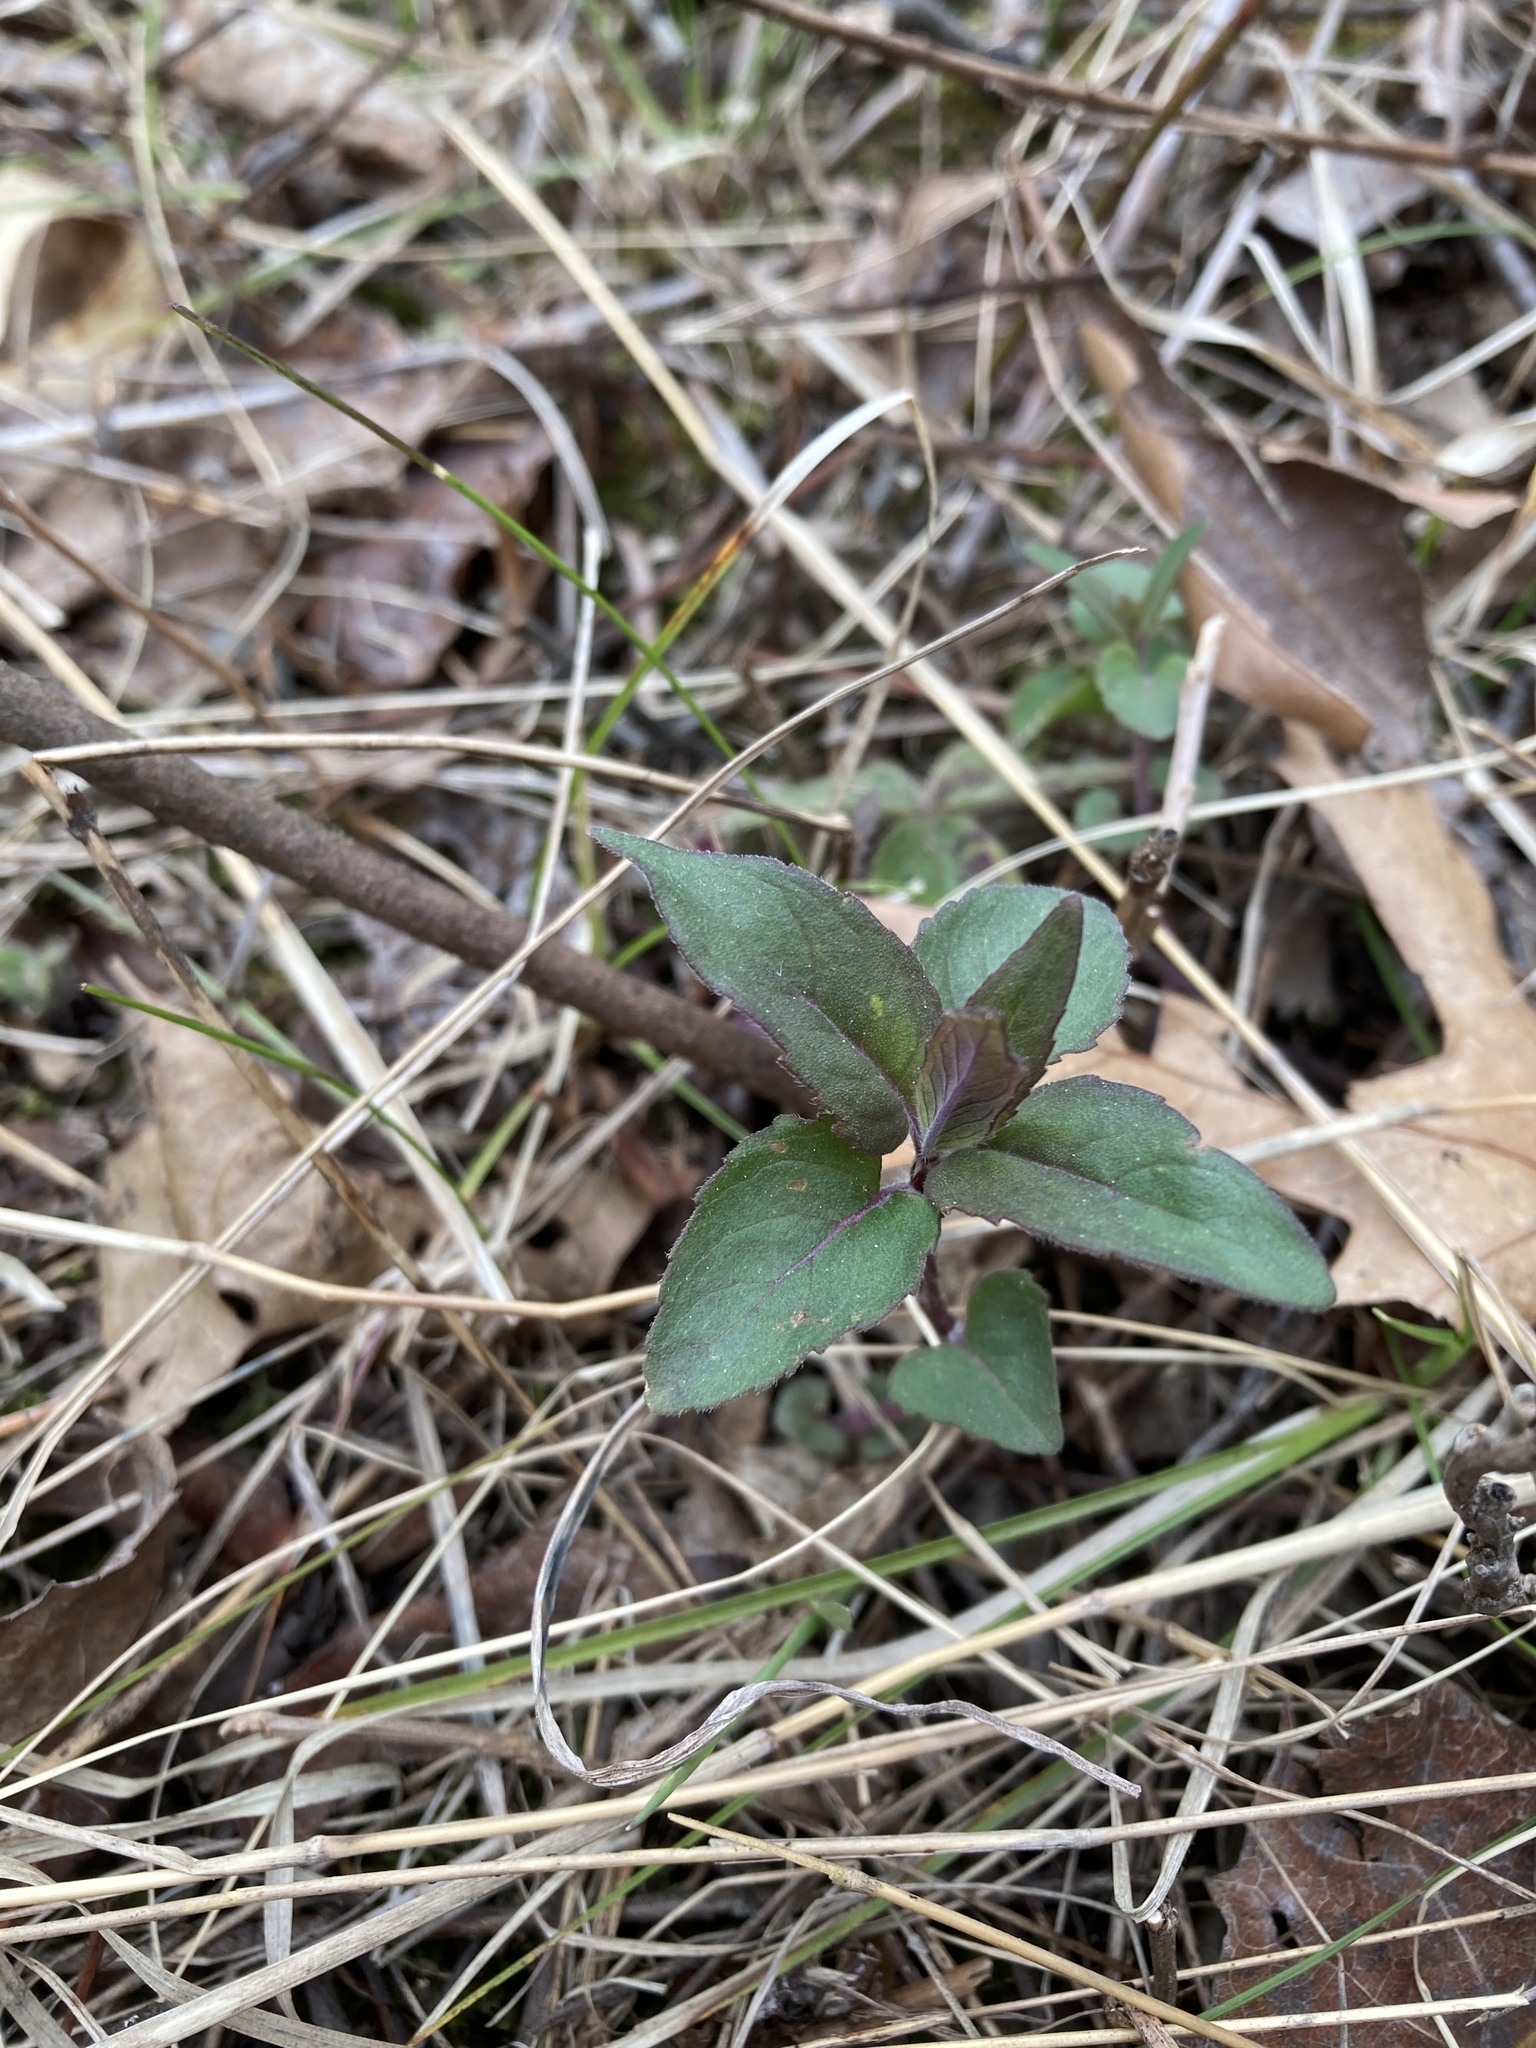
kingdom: Plantae
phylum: Tracheophyta
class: Magnoliopsida
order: Lamiales
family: Lamiaceae
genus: Monarda
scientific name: Monarda fistulosa
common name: Purple beebalm
